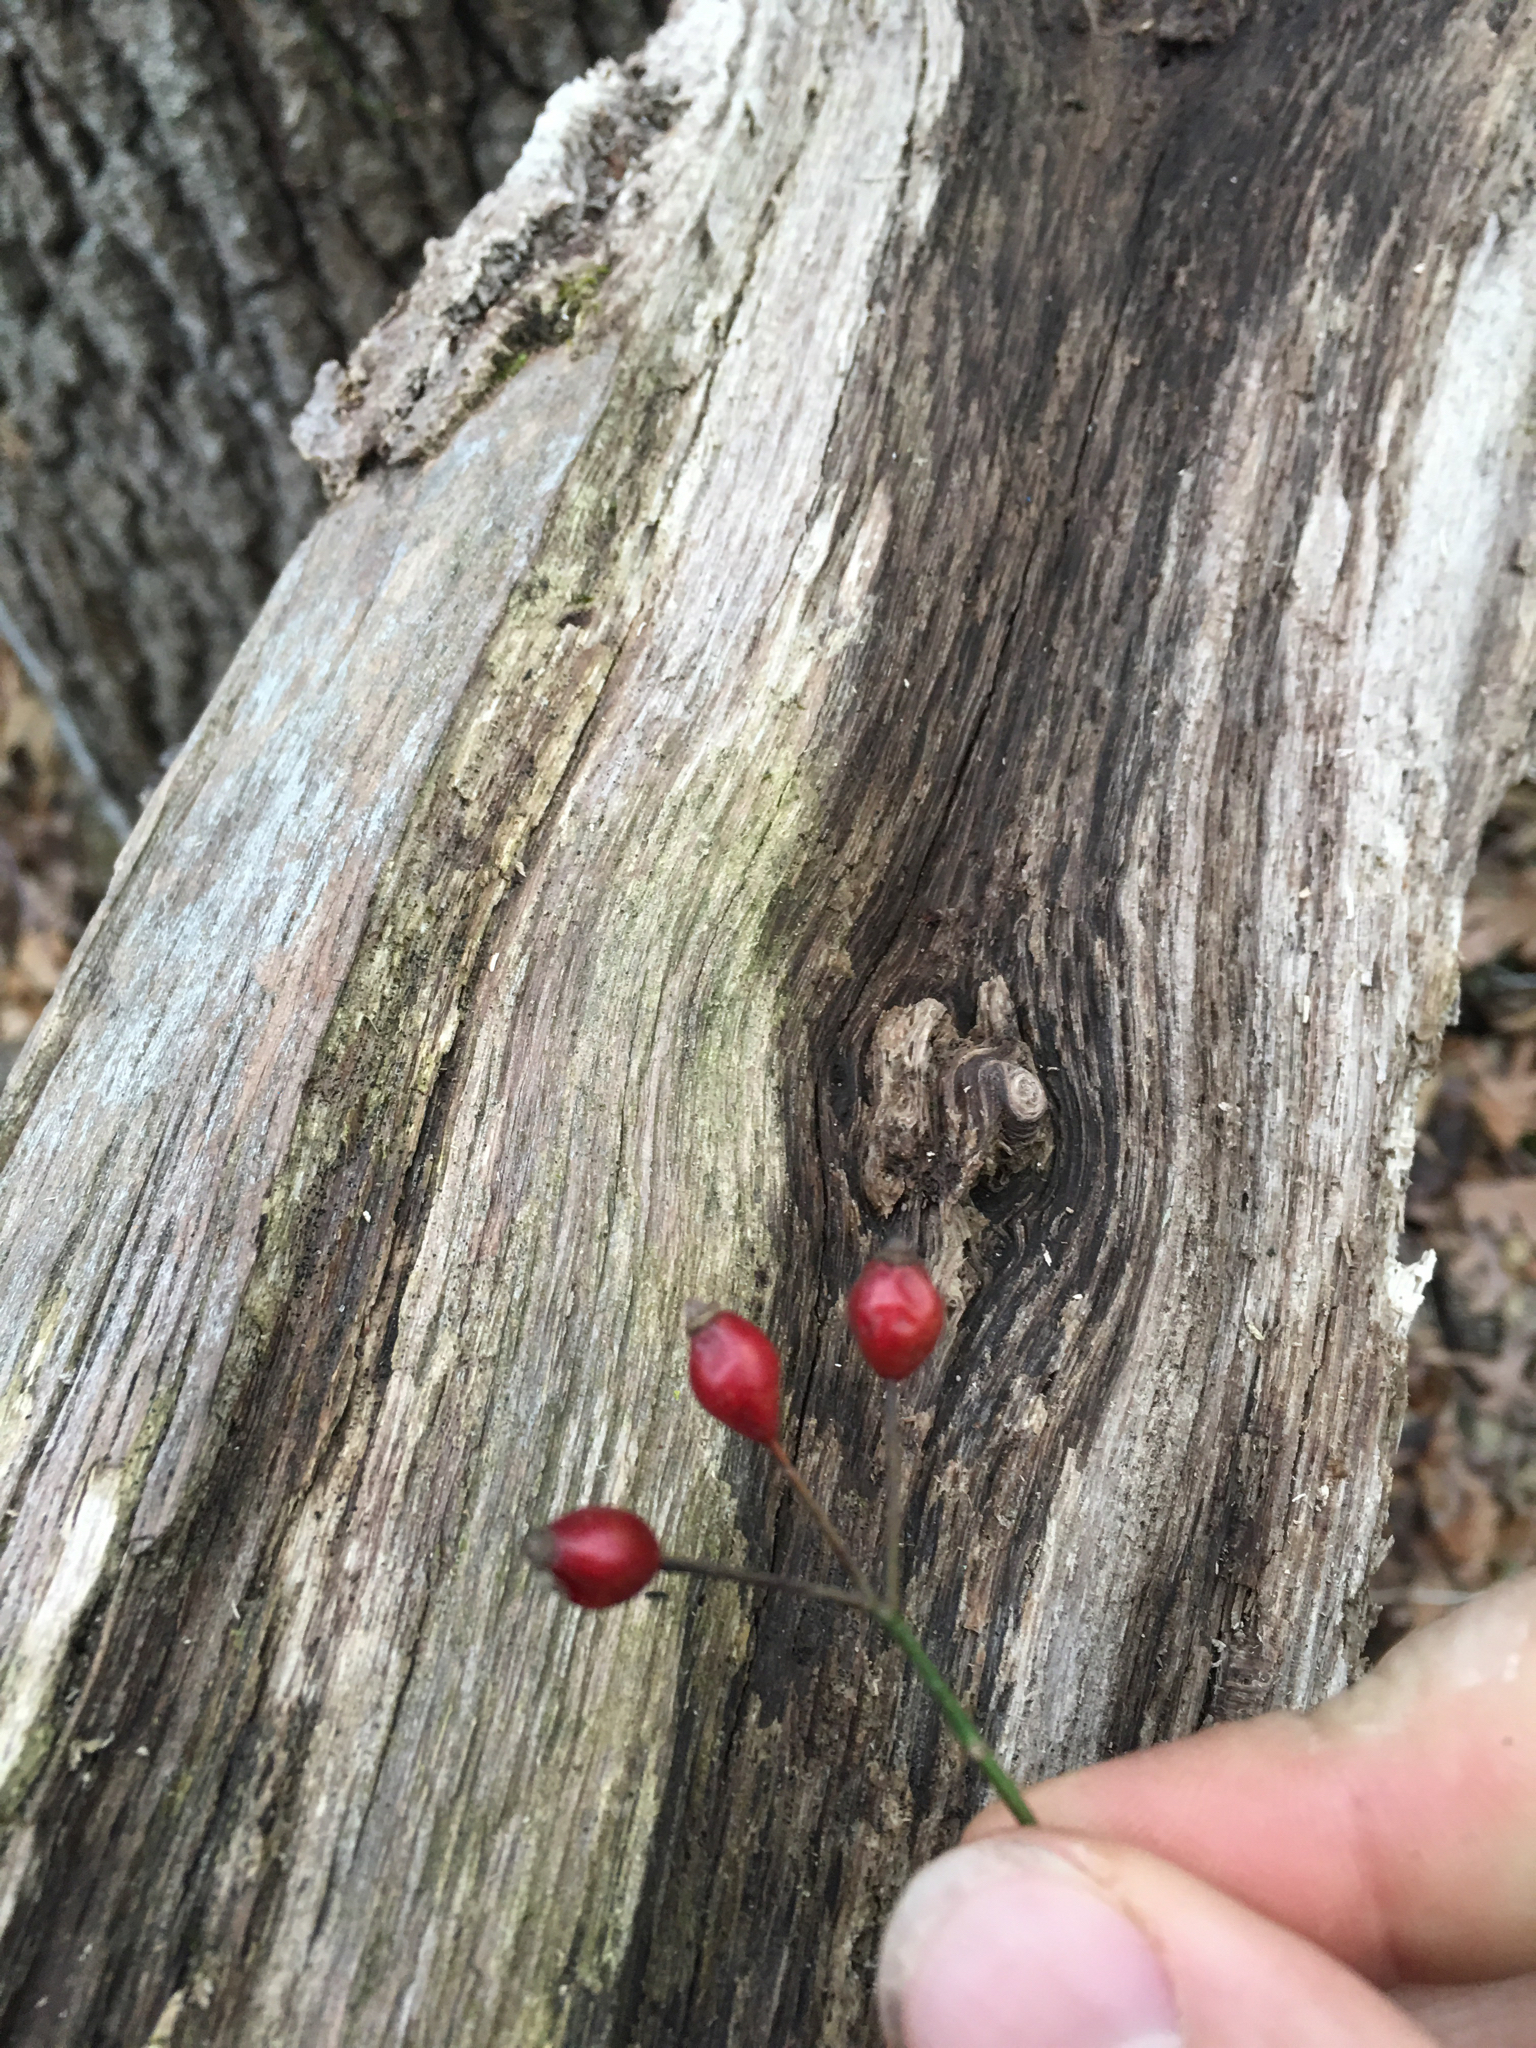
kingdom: Plantae
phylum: Tracheophyta
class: Magnoliopsida
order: Rosales
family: Rosaceae
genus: Rosa
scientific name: Rosa multiflora
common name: Multiflora rose
